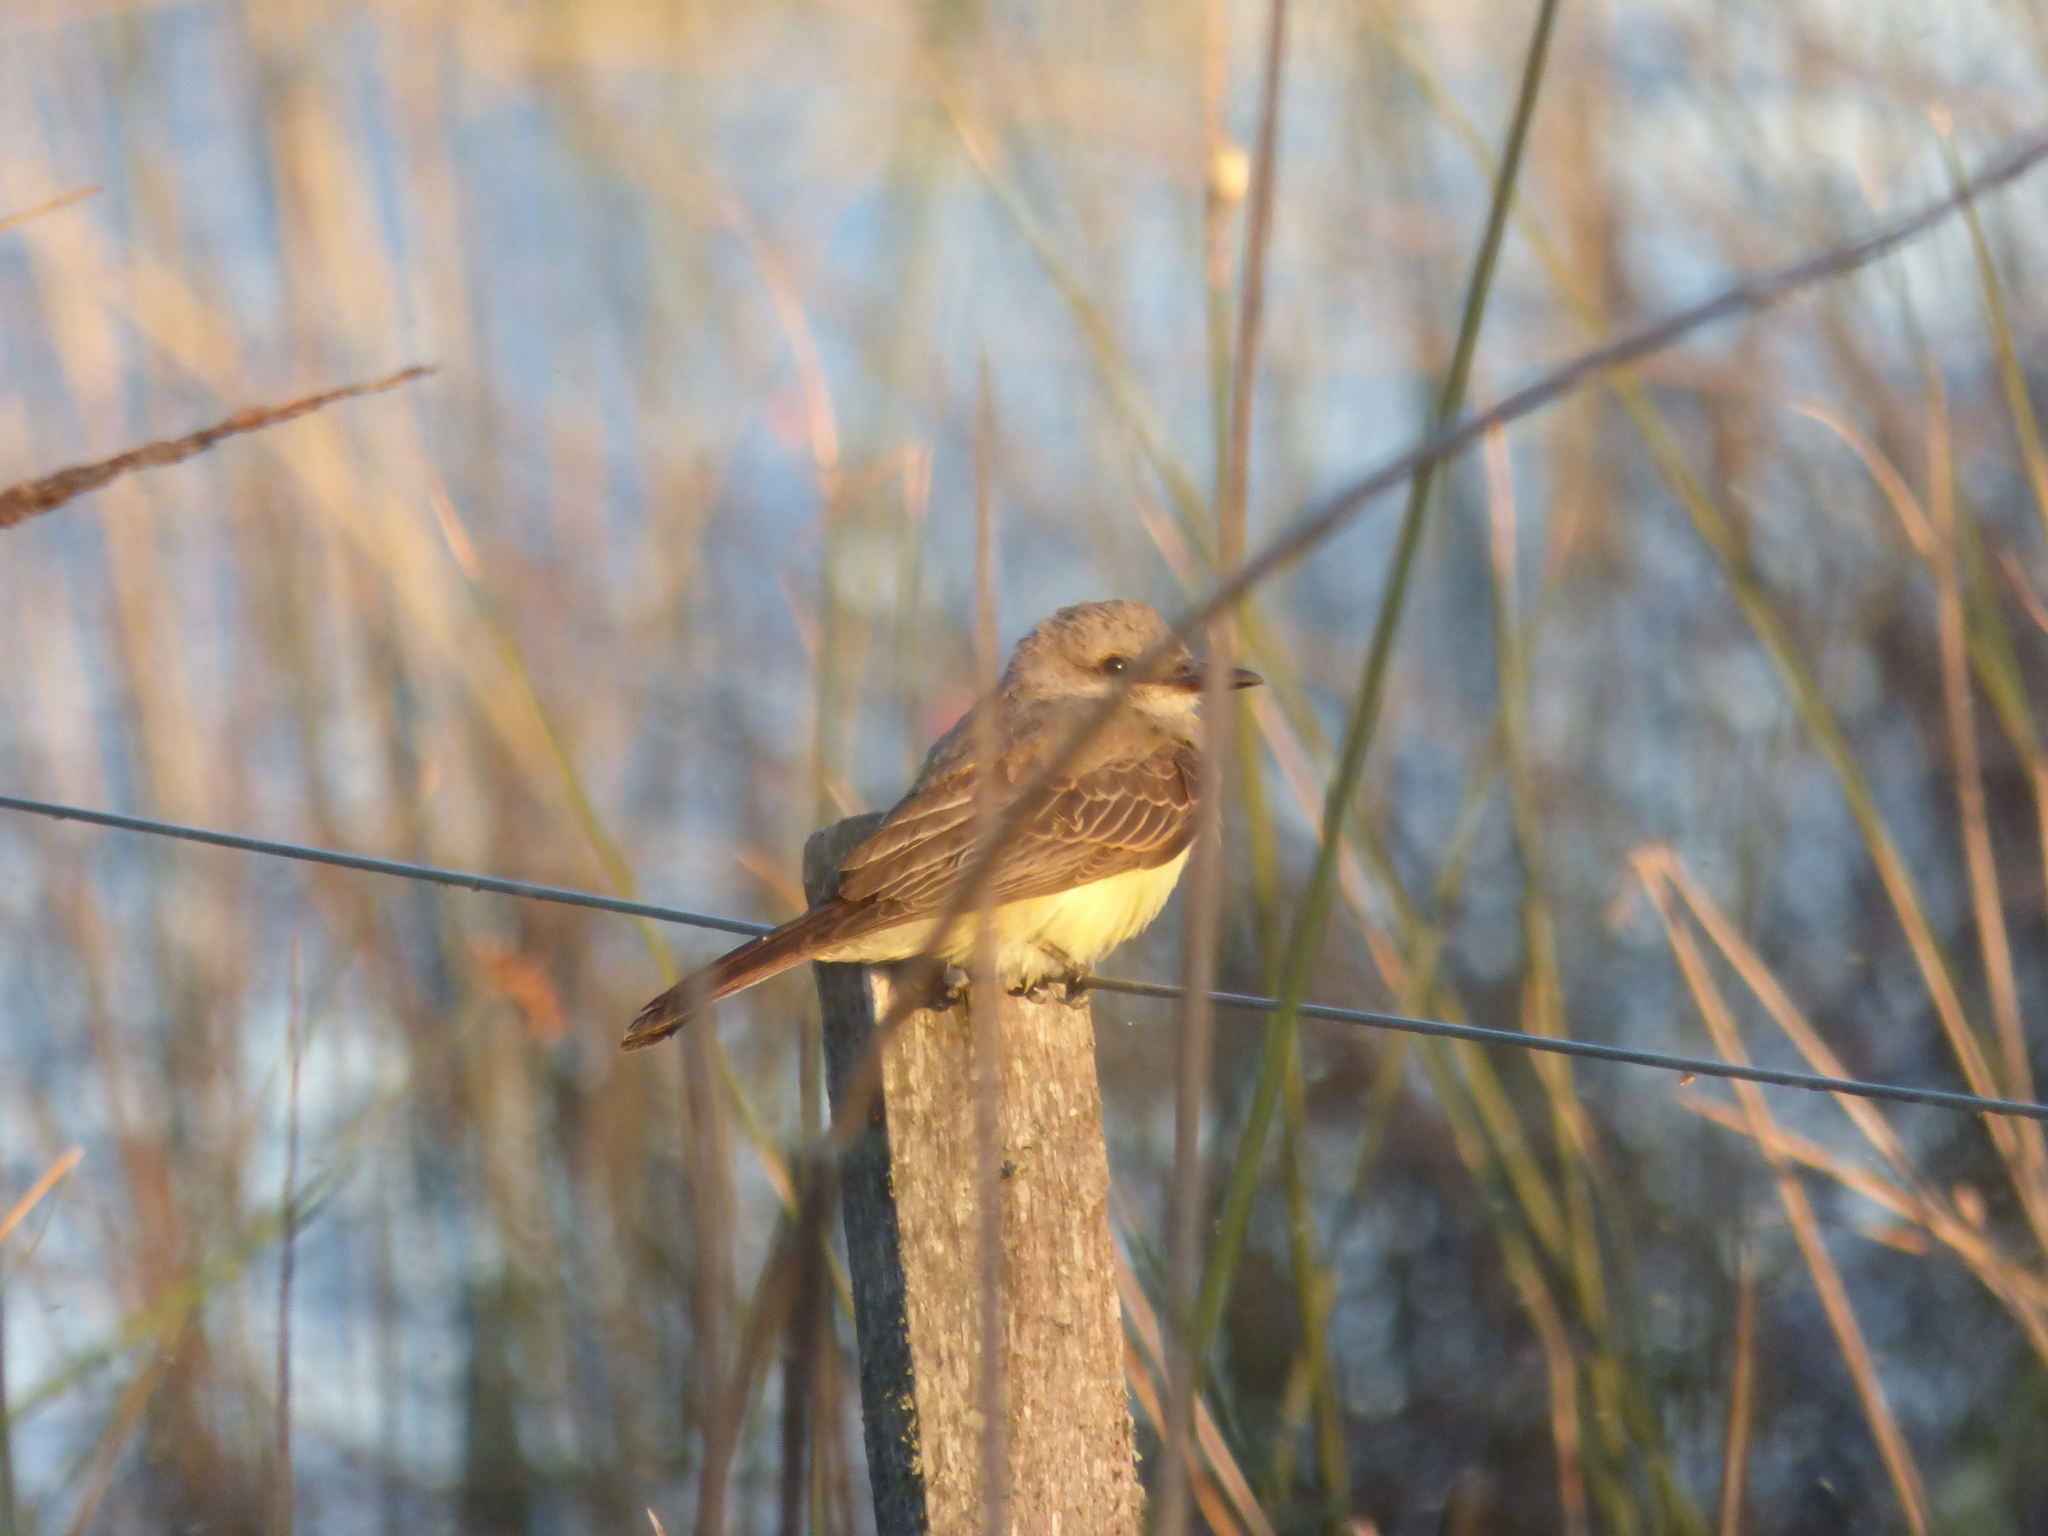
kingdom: Animalia
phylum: Chordata
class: Aves
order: Passeriformes
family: Tyrannidae
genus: Tyrannus
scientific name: Tyrannus melancholicus
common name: Tropical kingbird
